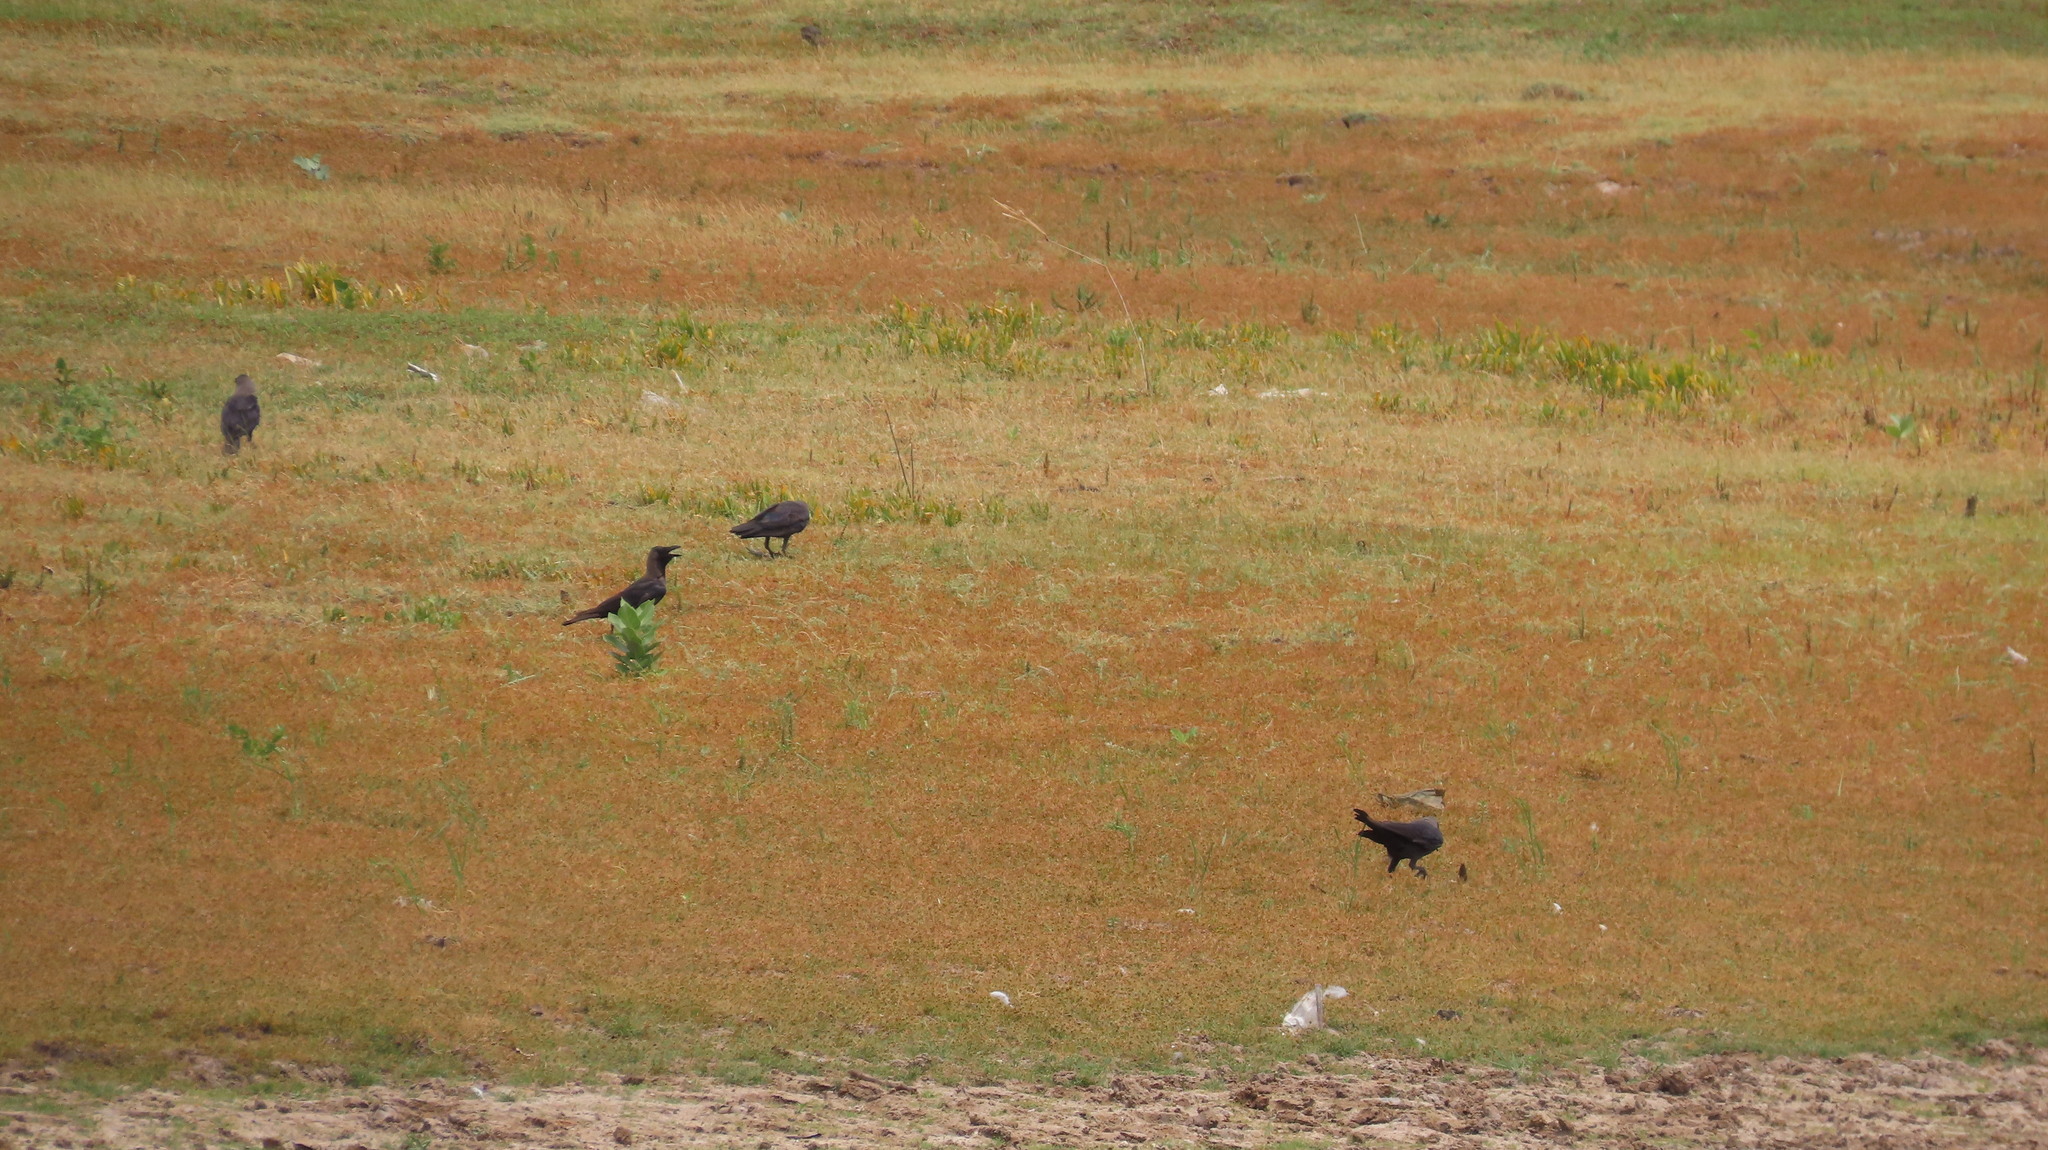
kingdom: Animalia
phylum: Chordata
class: Aves
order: Passeriformes
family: Corvidae
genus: Corvus
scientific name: Corvus splendens
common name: House crow
